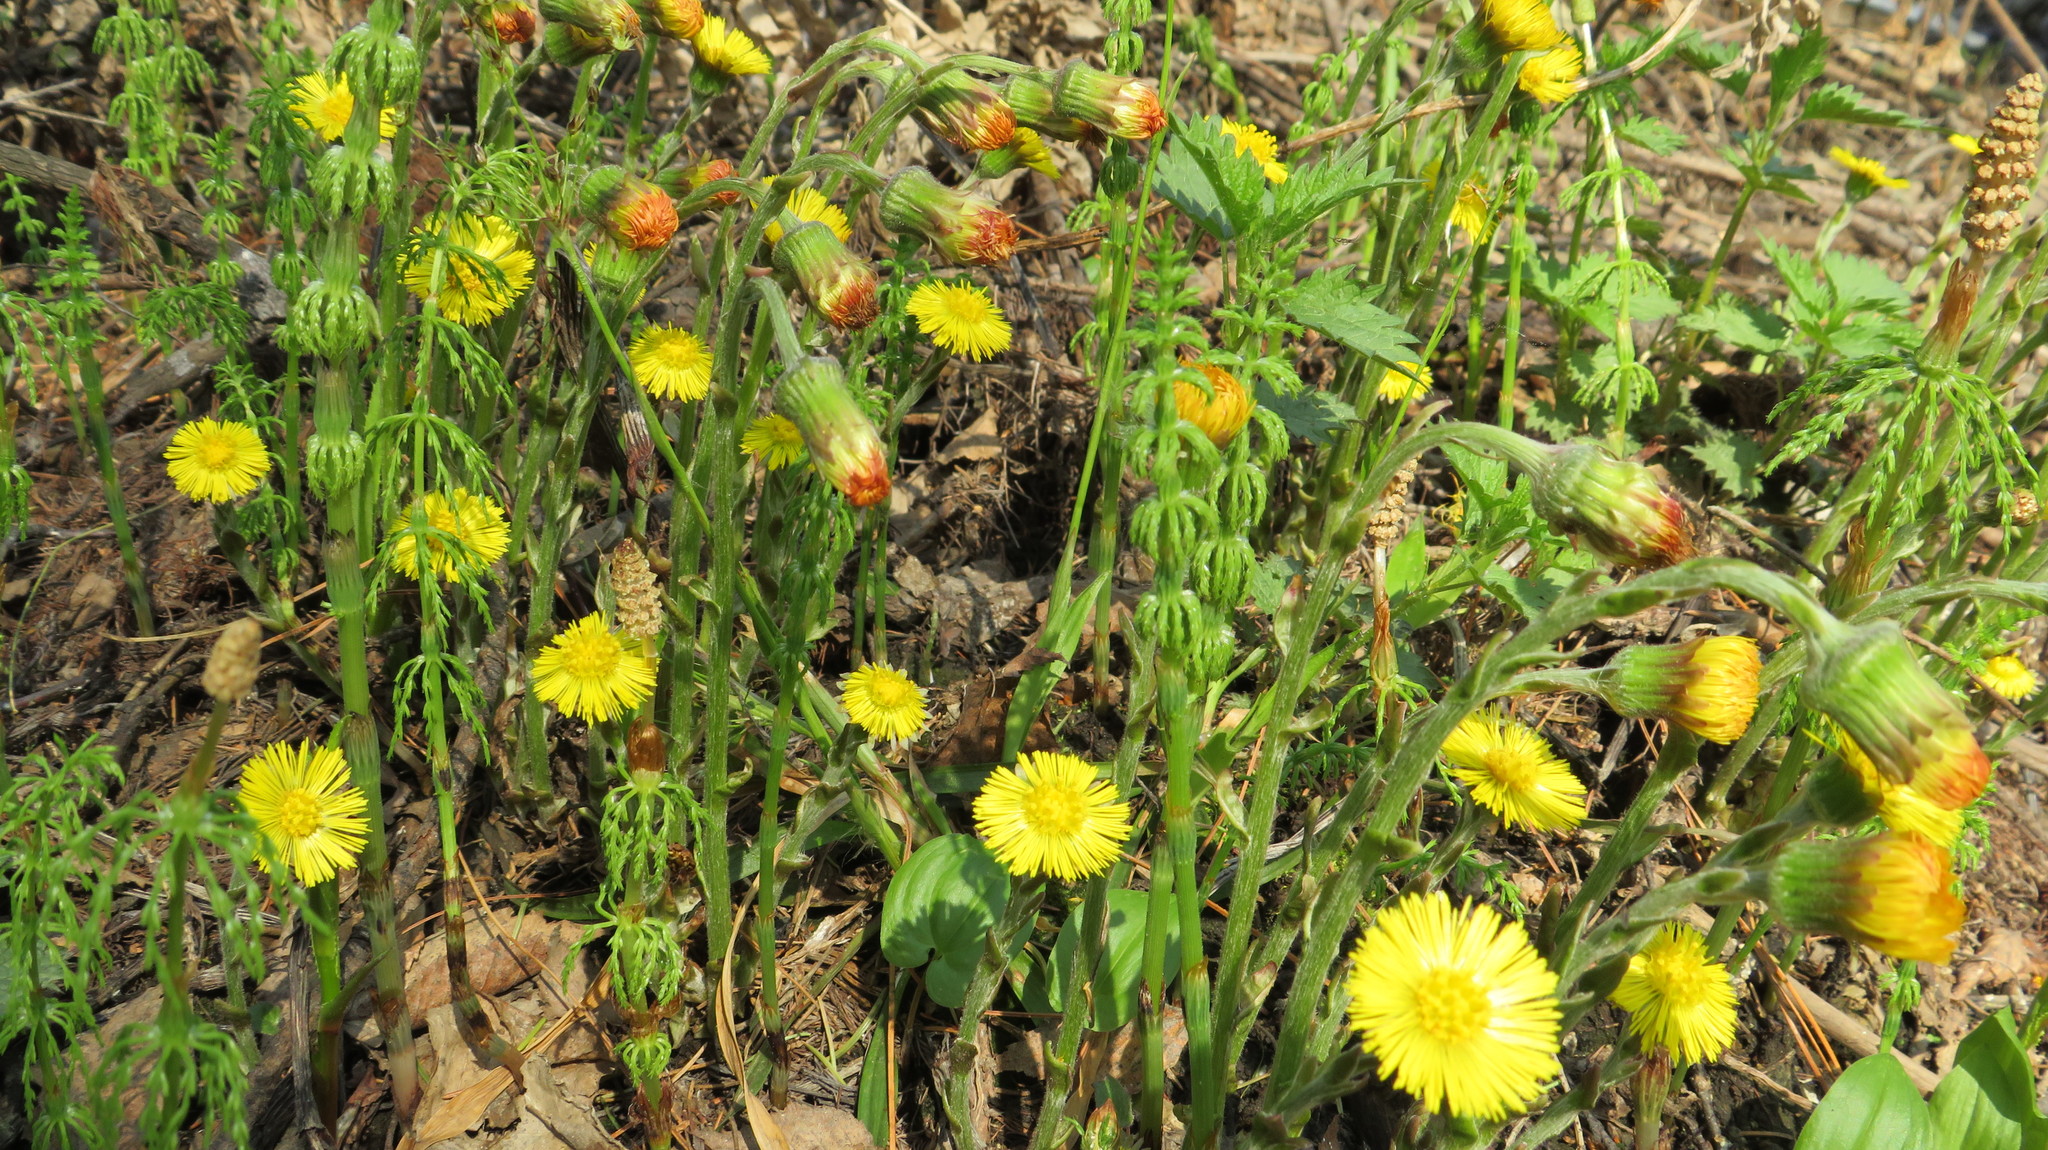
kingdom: Plantae
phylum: Tracheophyta
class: Magnoliopsida
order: Asterales
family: Asteraceae
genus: Tussilago
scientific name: Tussilago farfara
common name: Coltsfoot
